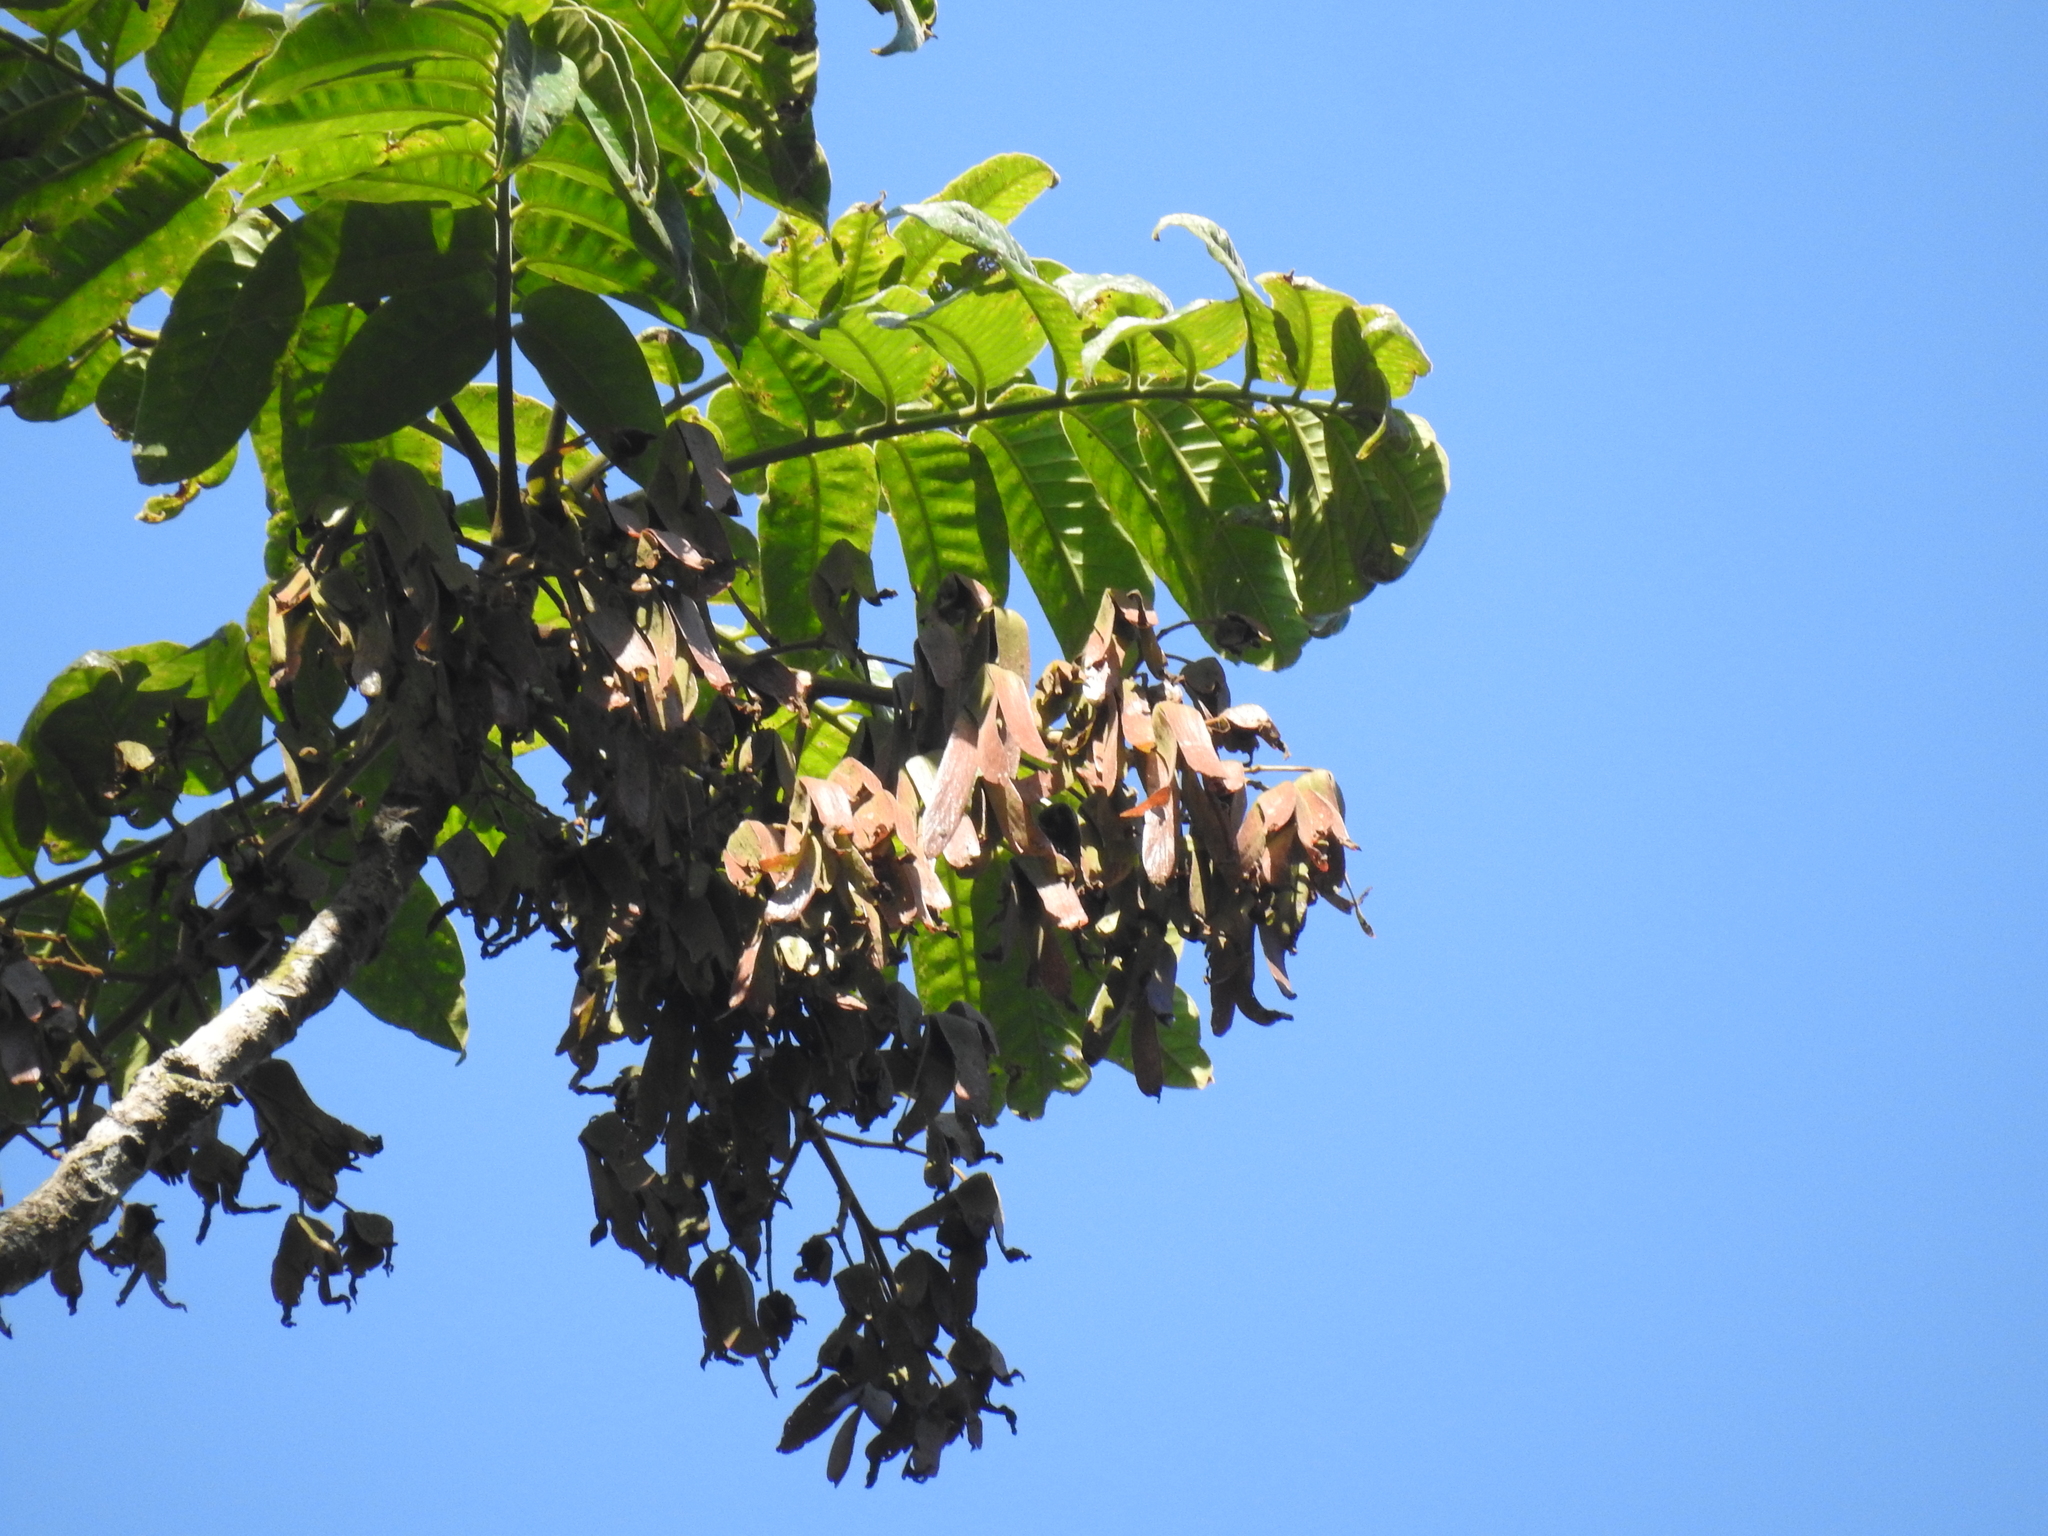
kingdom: Plantae
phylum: Tracheophyta
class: Magnoliopsida
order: Sapindales
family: Anacardiaceae
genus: Parishia
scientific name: Parishia insignis
